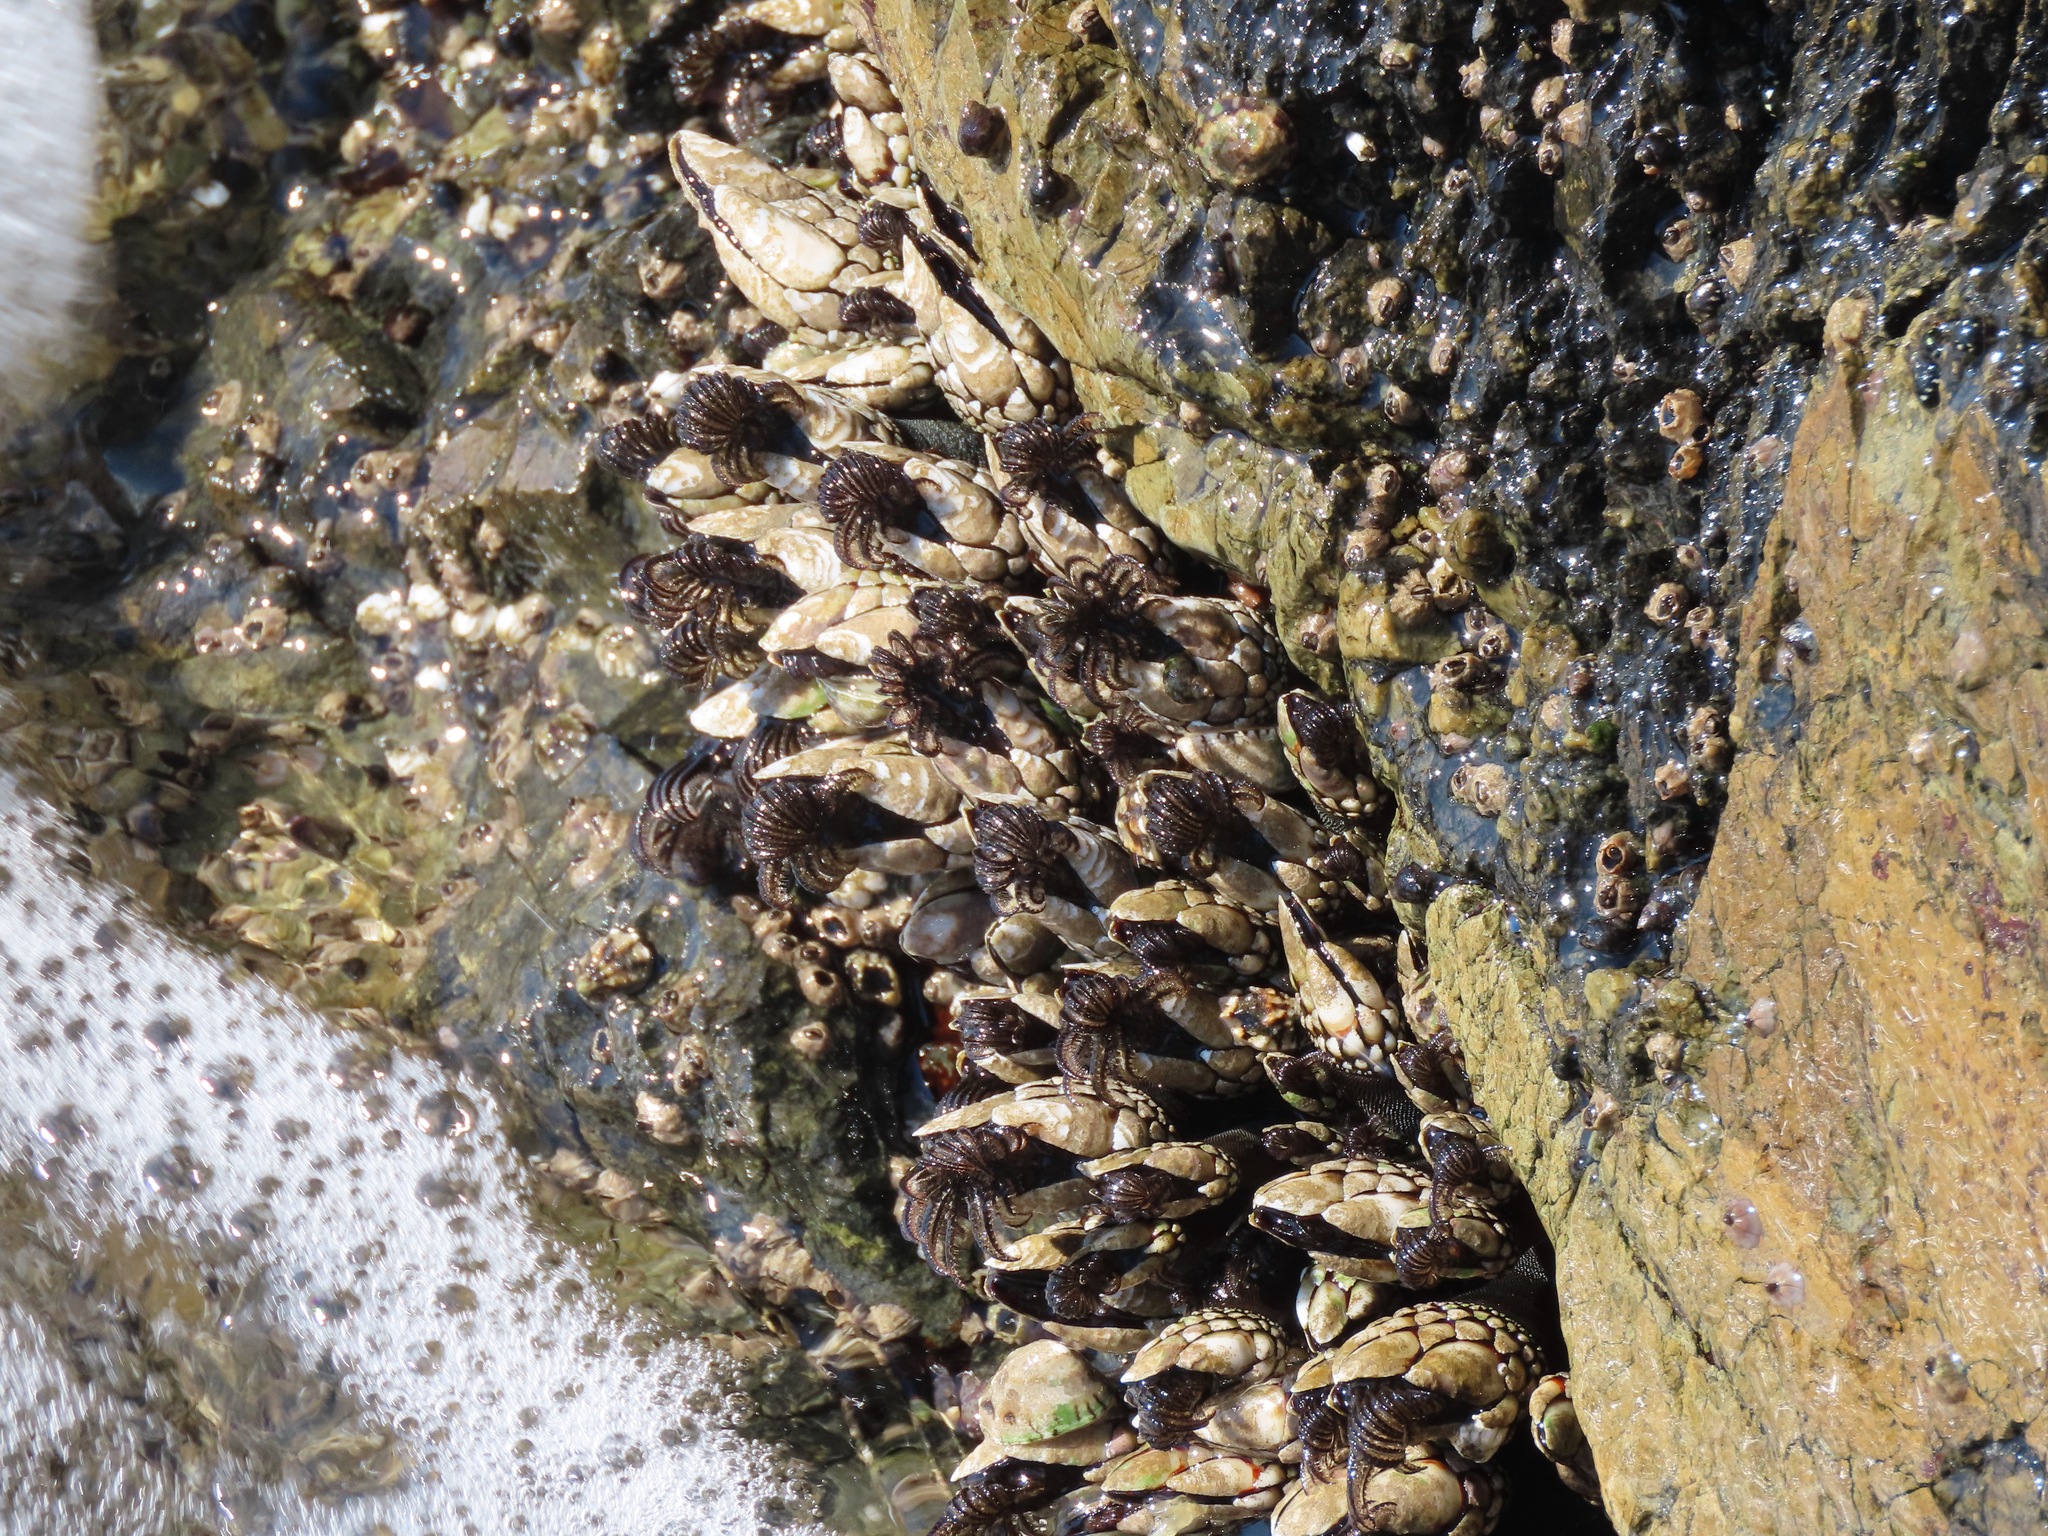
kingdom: Animalia
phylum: Arthropoda
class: Maxillopoda
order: Pedunculata
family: Pollicipedidae
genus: Pollicipes
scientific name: Pollicipes polymerus
